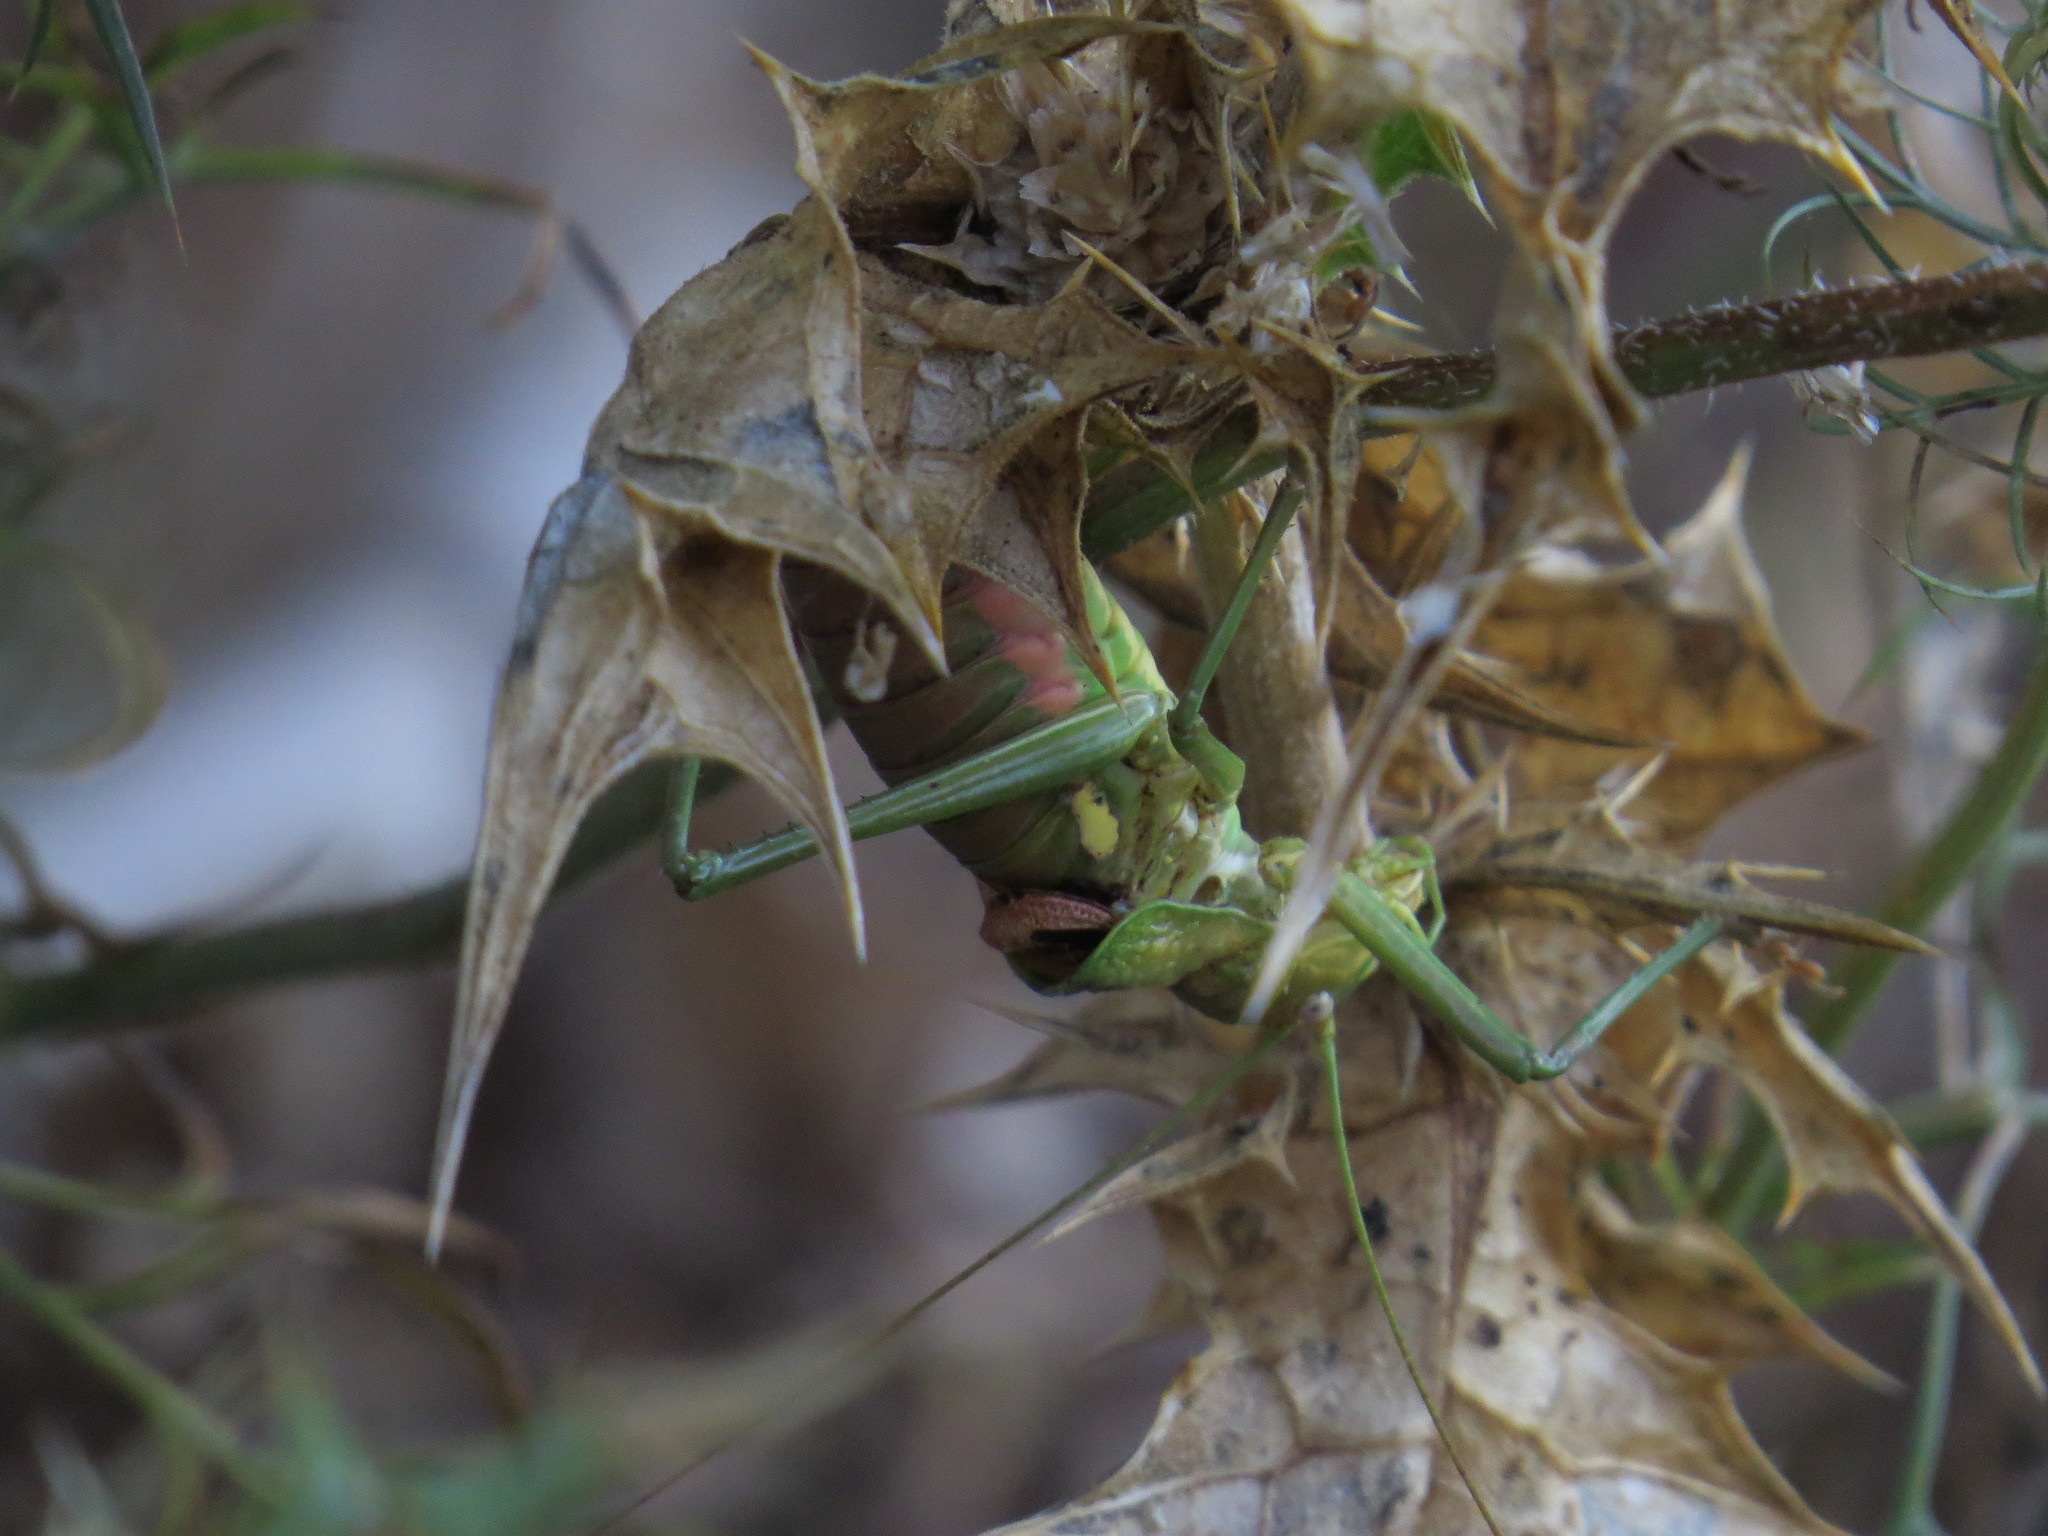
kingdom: Animalia
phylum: Arthropoda
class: Insecta
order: Orthoptera
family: Tettigoniidae
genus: Uromenus
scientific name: Uromenus brevicollis
